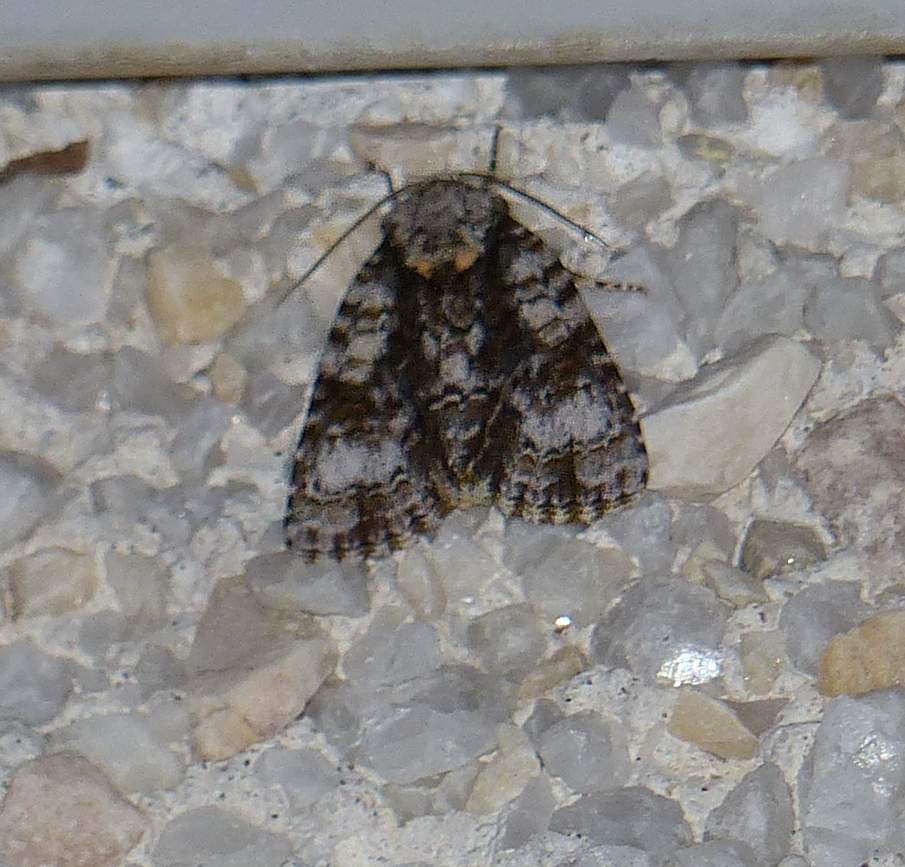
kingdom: Animalia
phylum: Arthropoda
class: Insecta
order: Lepidoptera
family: Noctuidae
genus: Acronicta
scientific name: Acronicta superans
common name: Splendid dagger
